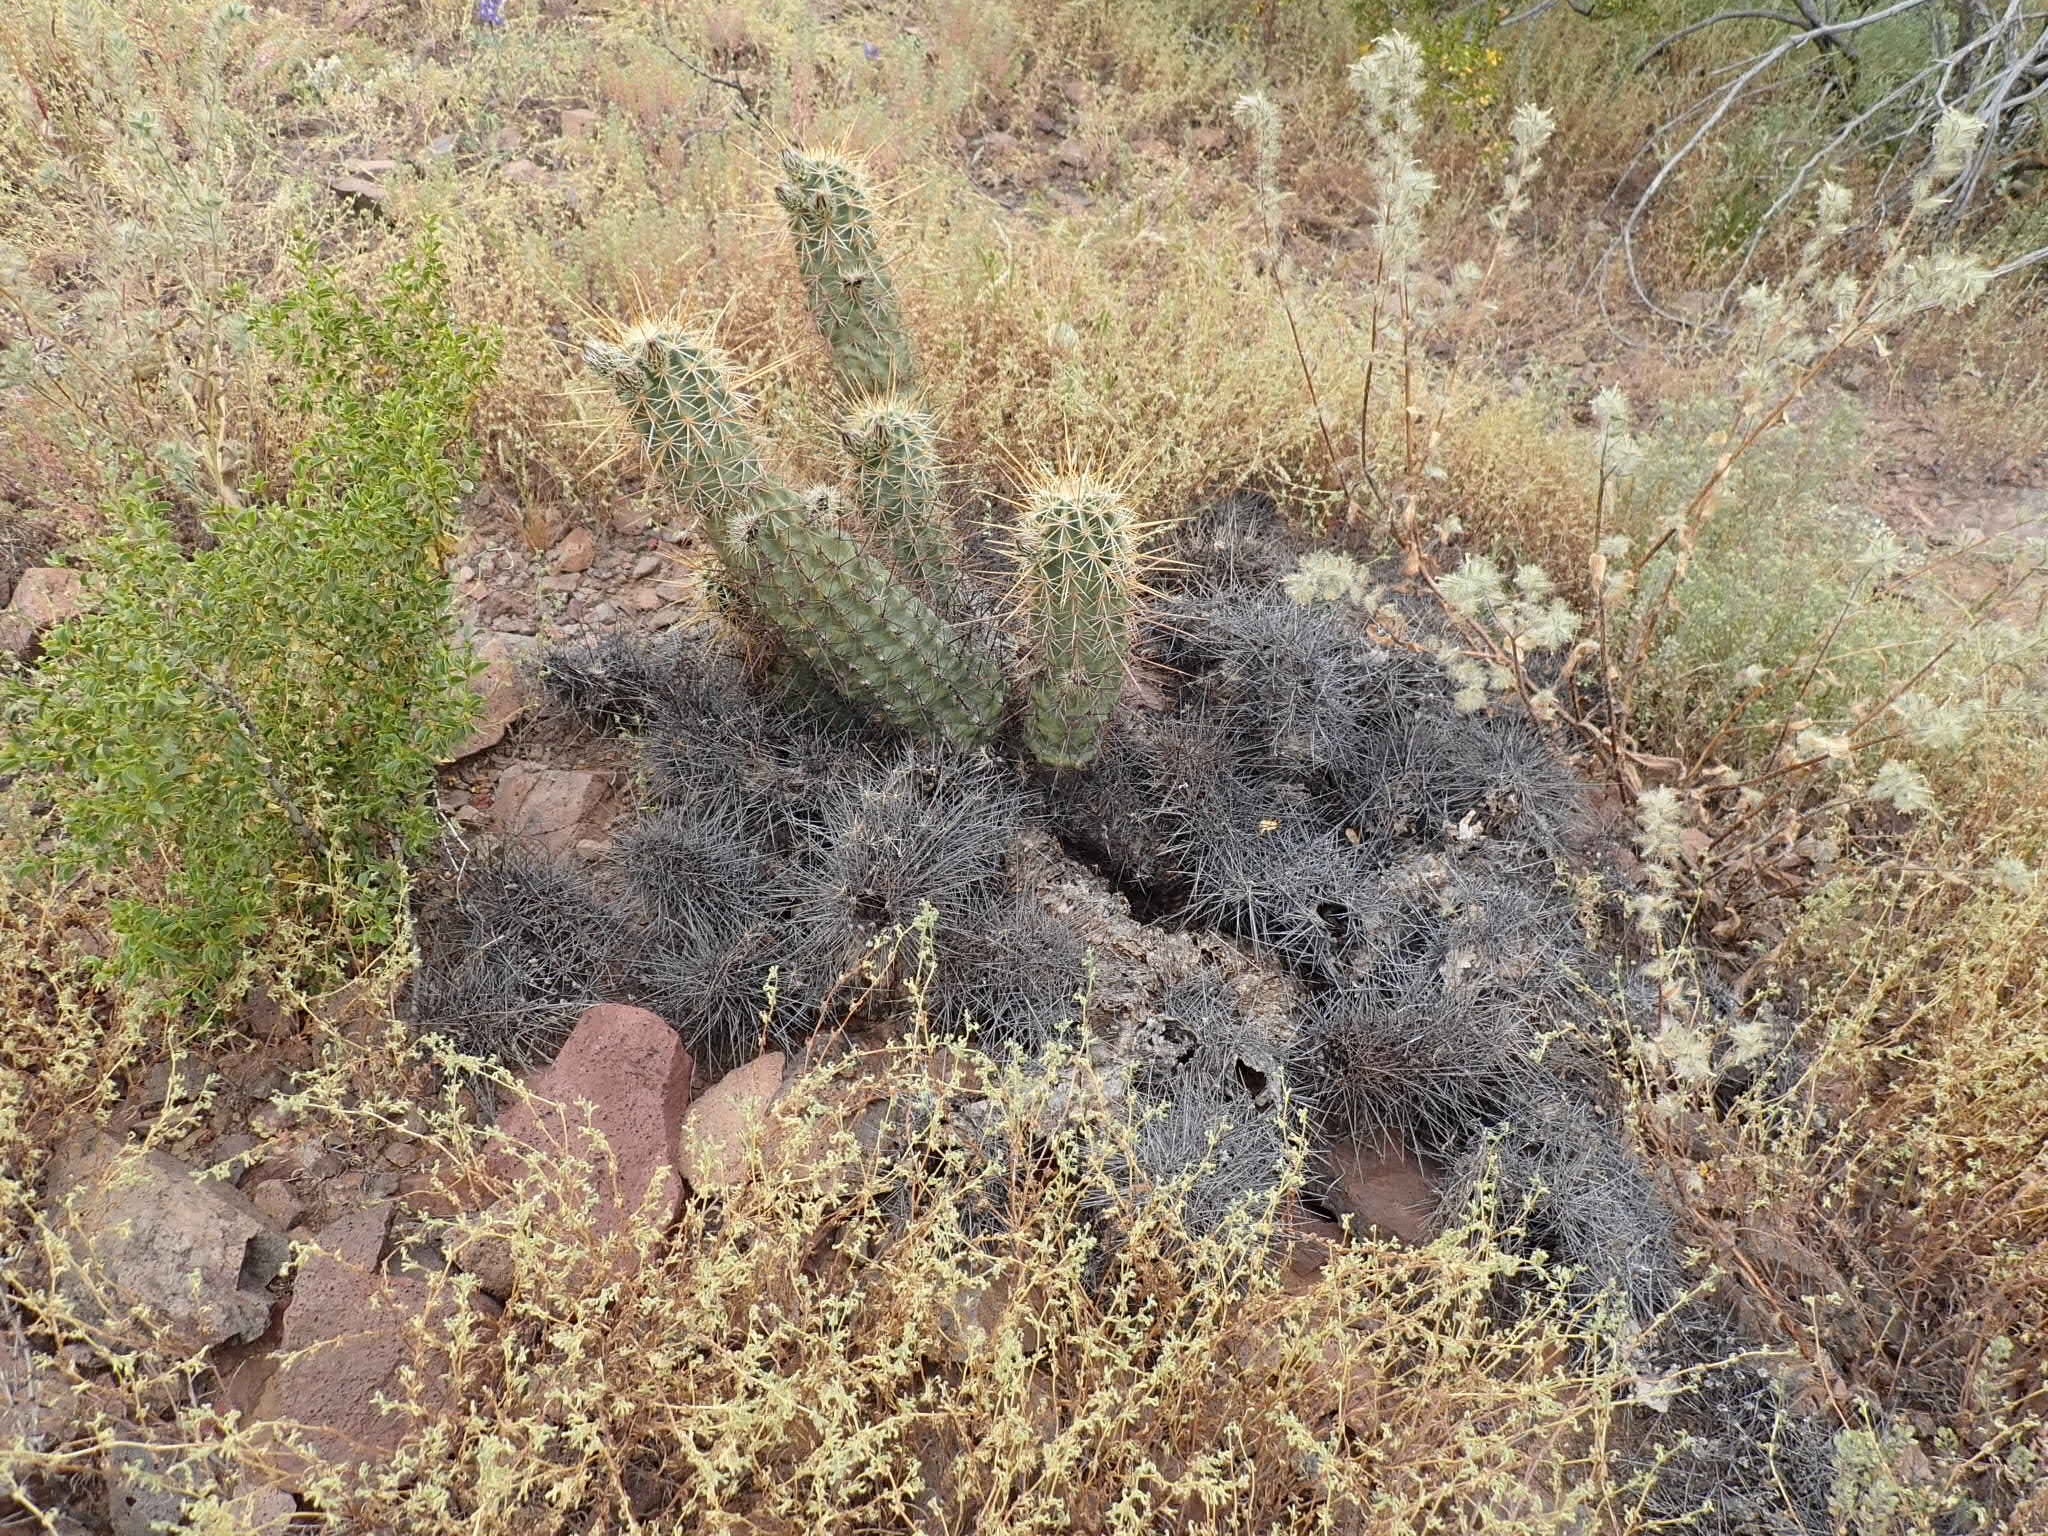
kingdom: Plantae
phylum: Tracheophyta
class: Magnoliopsida
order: Caryophyllales
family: Cactaceae
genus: Echinocereus
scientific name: Echinocereus fasciculatus
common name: Bundle hedgehog
